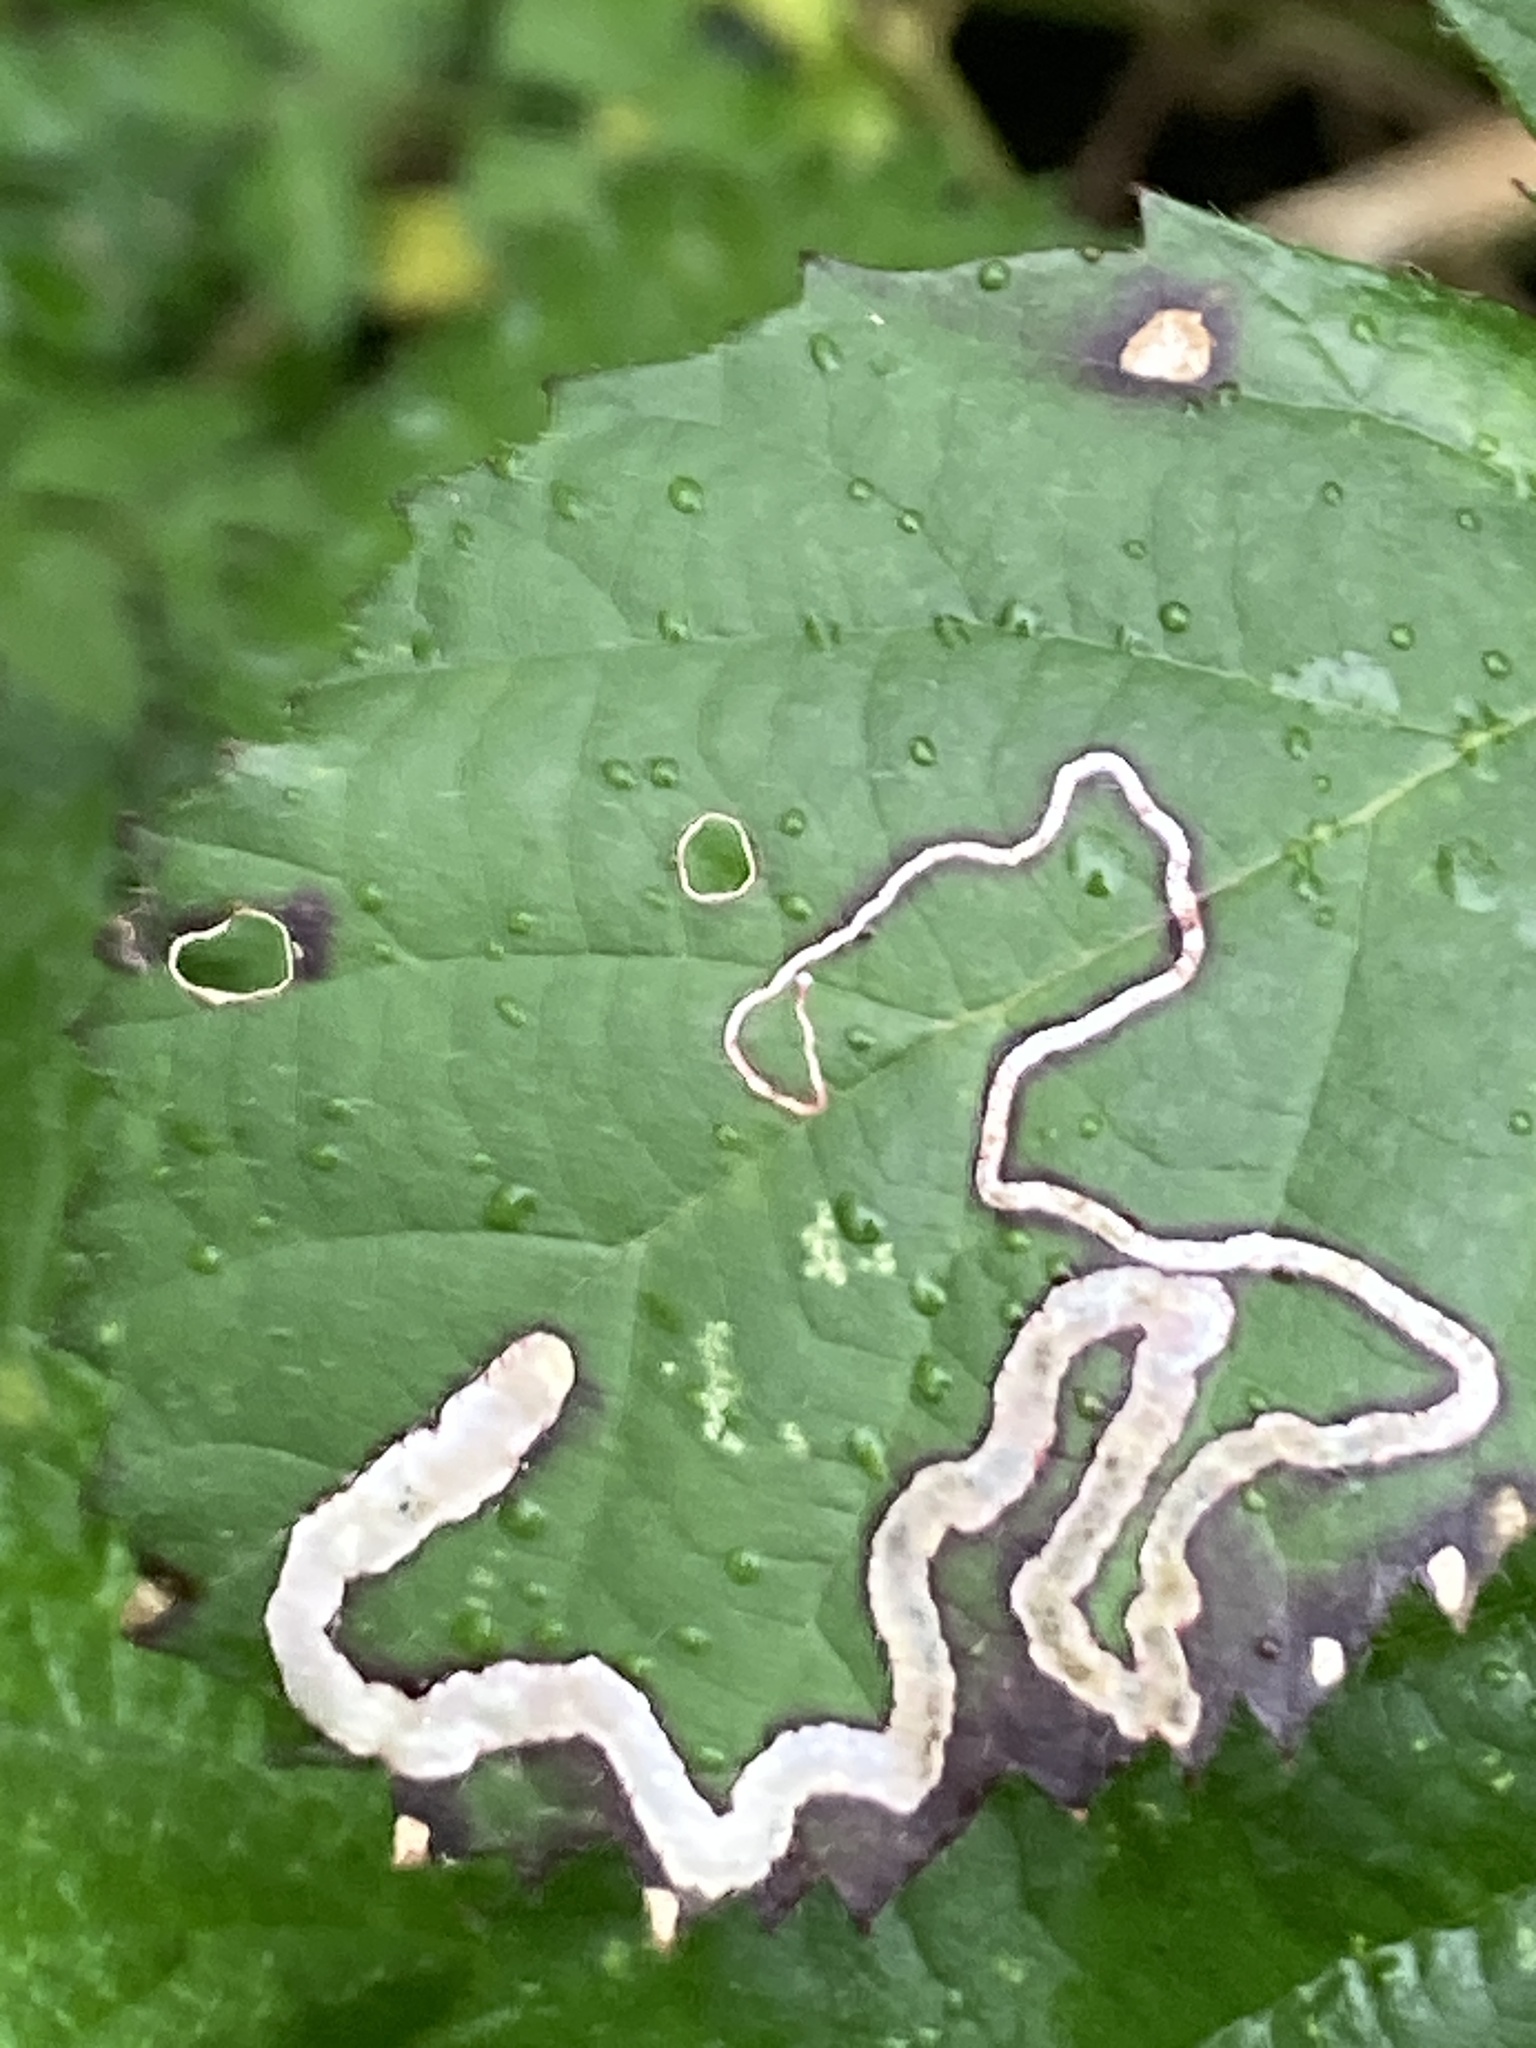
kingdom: Animalia
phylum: Arthropoda
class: Insecta
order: Lepidoptera
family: Nepticulidae
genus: Stigmella
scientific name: Stigmella aurella
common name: Golden pigmy
